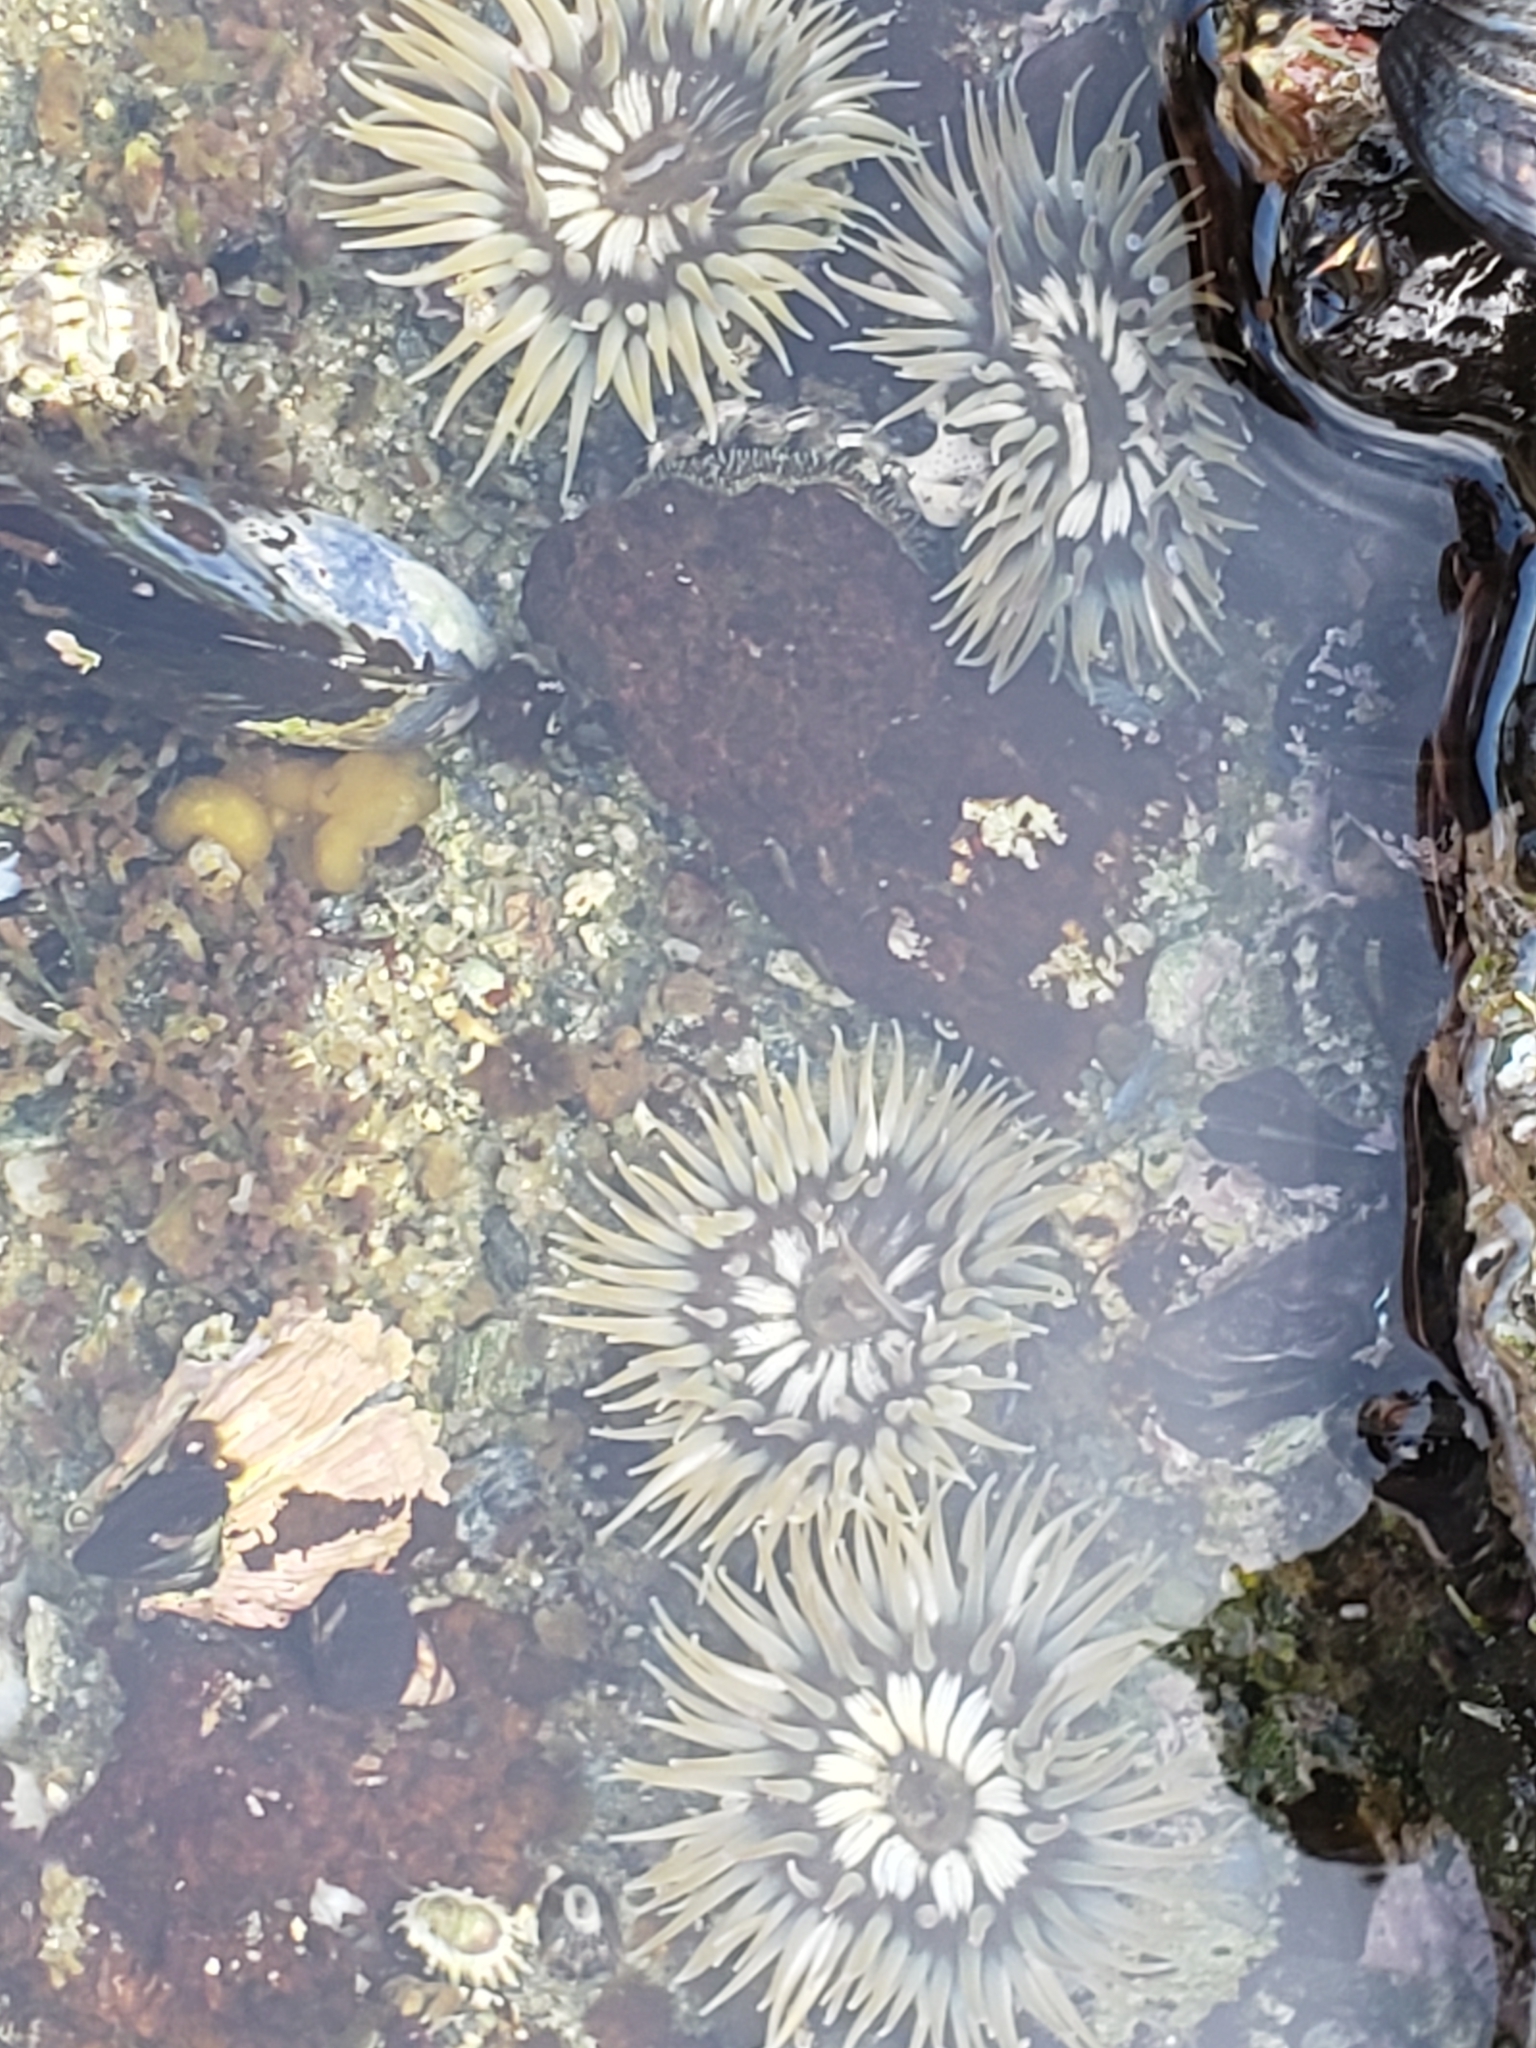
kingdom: Animalia
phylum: Cnidaria
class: Anthozoa
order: Actiniaria
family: Actiniidae
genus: Anthopleura
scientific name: Anthopleura elegantissima
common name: Clonal anemone
